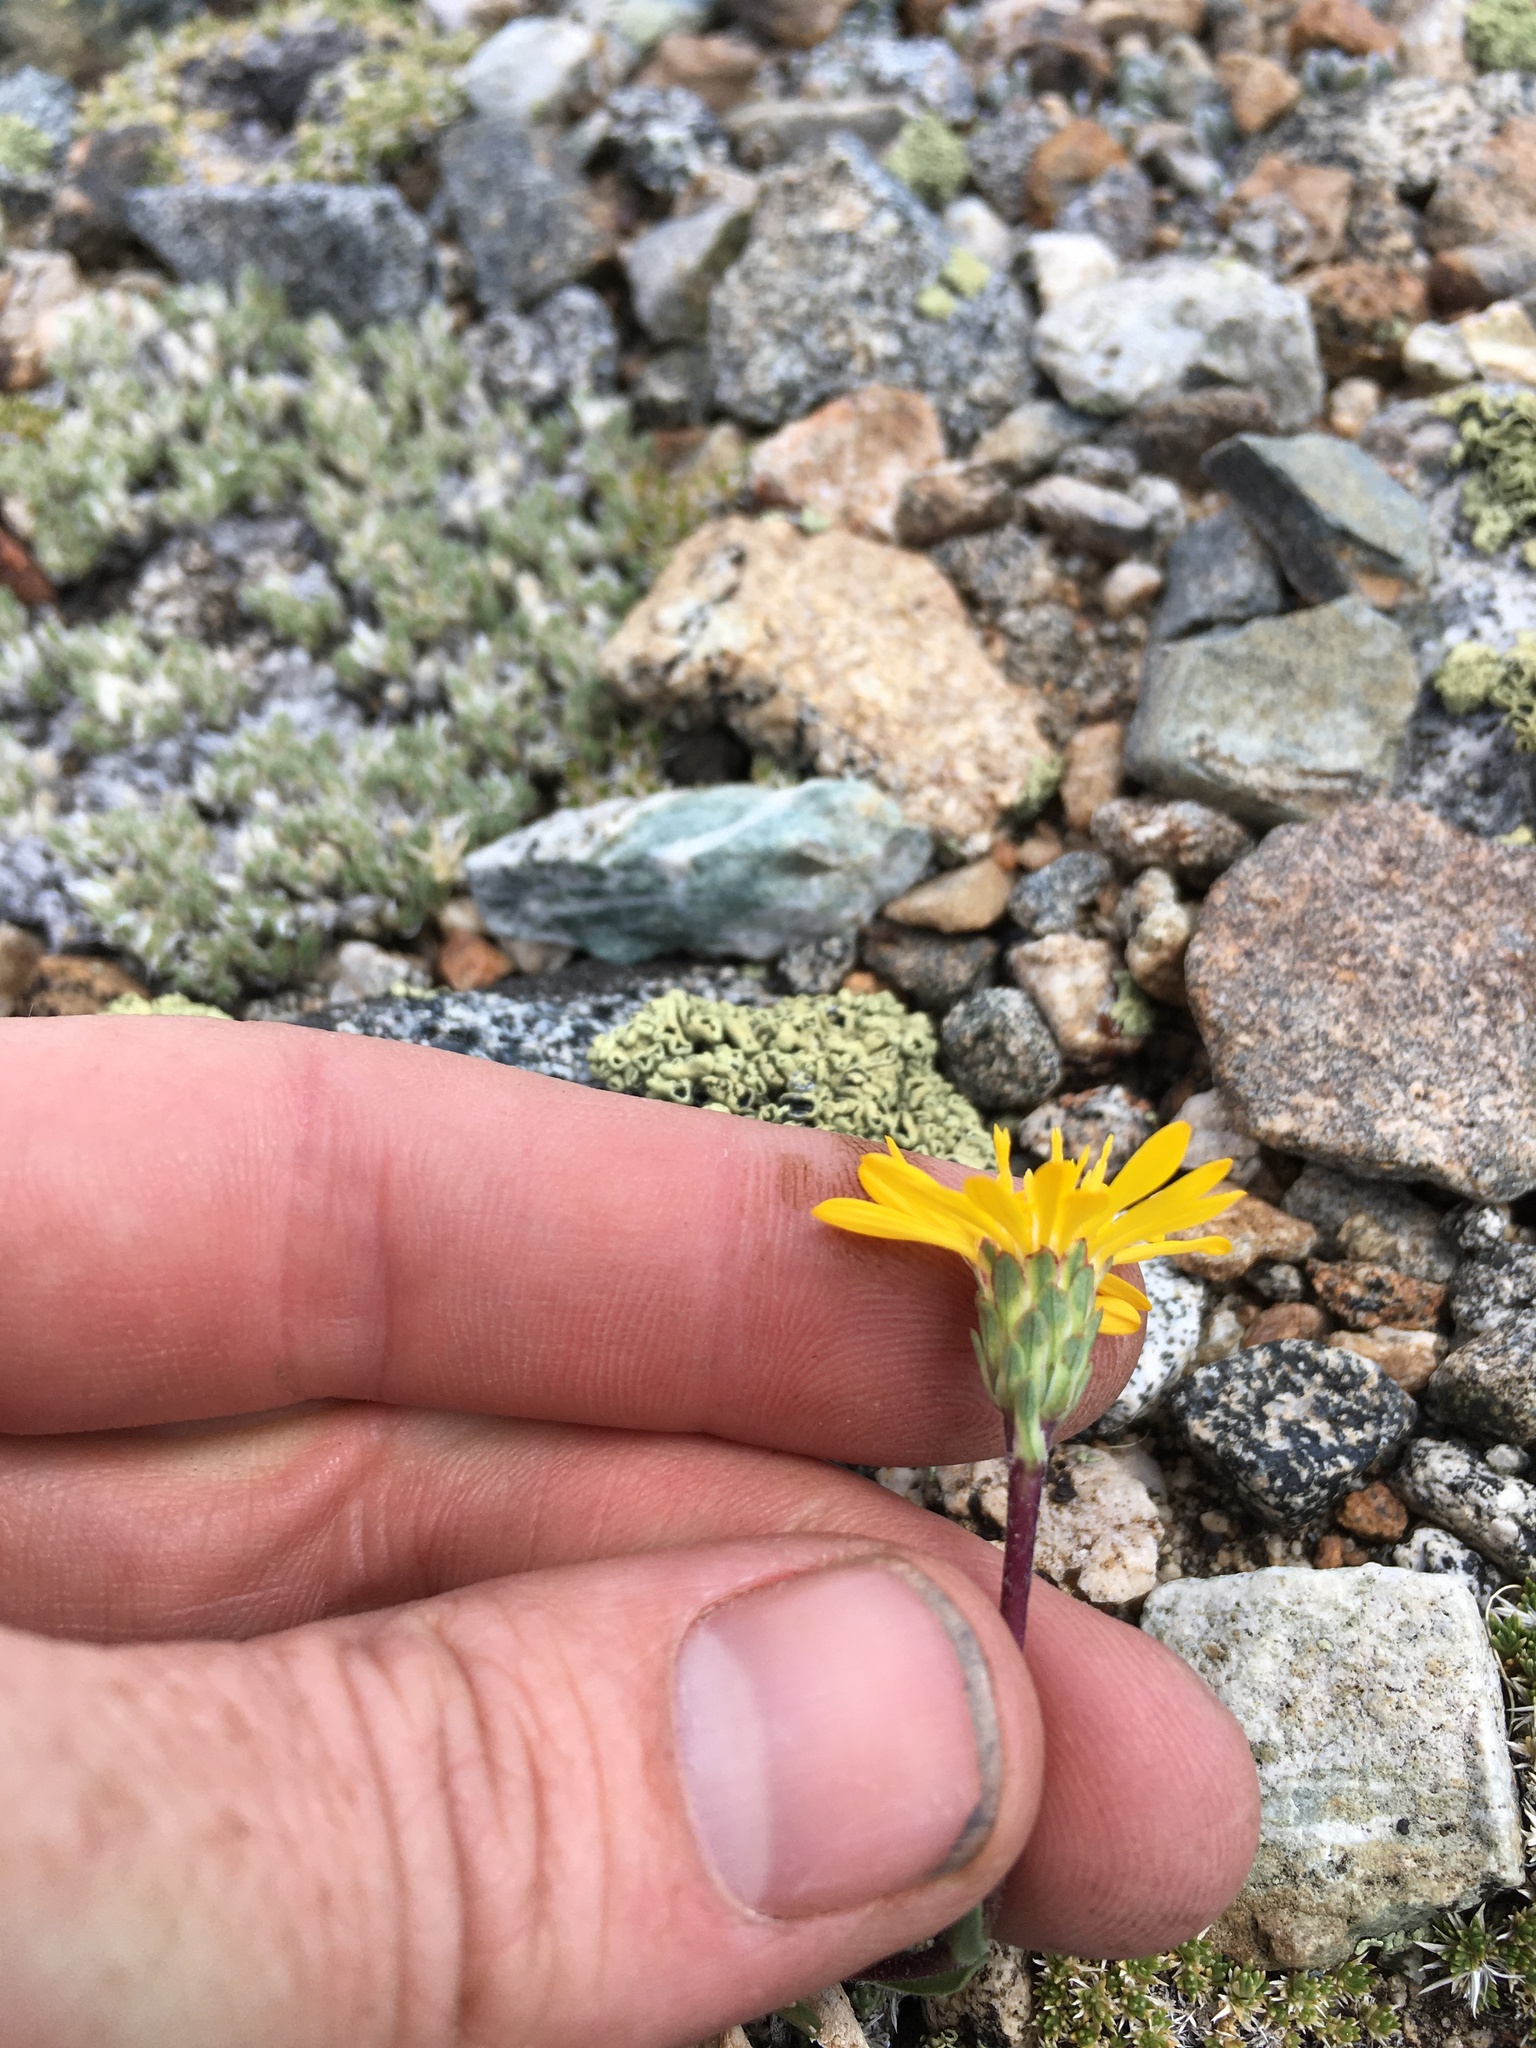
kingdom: Plantae
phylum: Tracheophyta
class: Magnoliopsida
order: Asterales
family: Asteraceae
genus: Pyrrocoma
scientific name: Pyrrocoma apargioides
